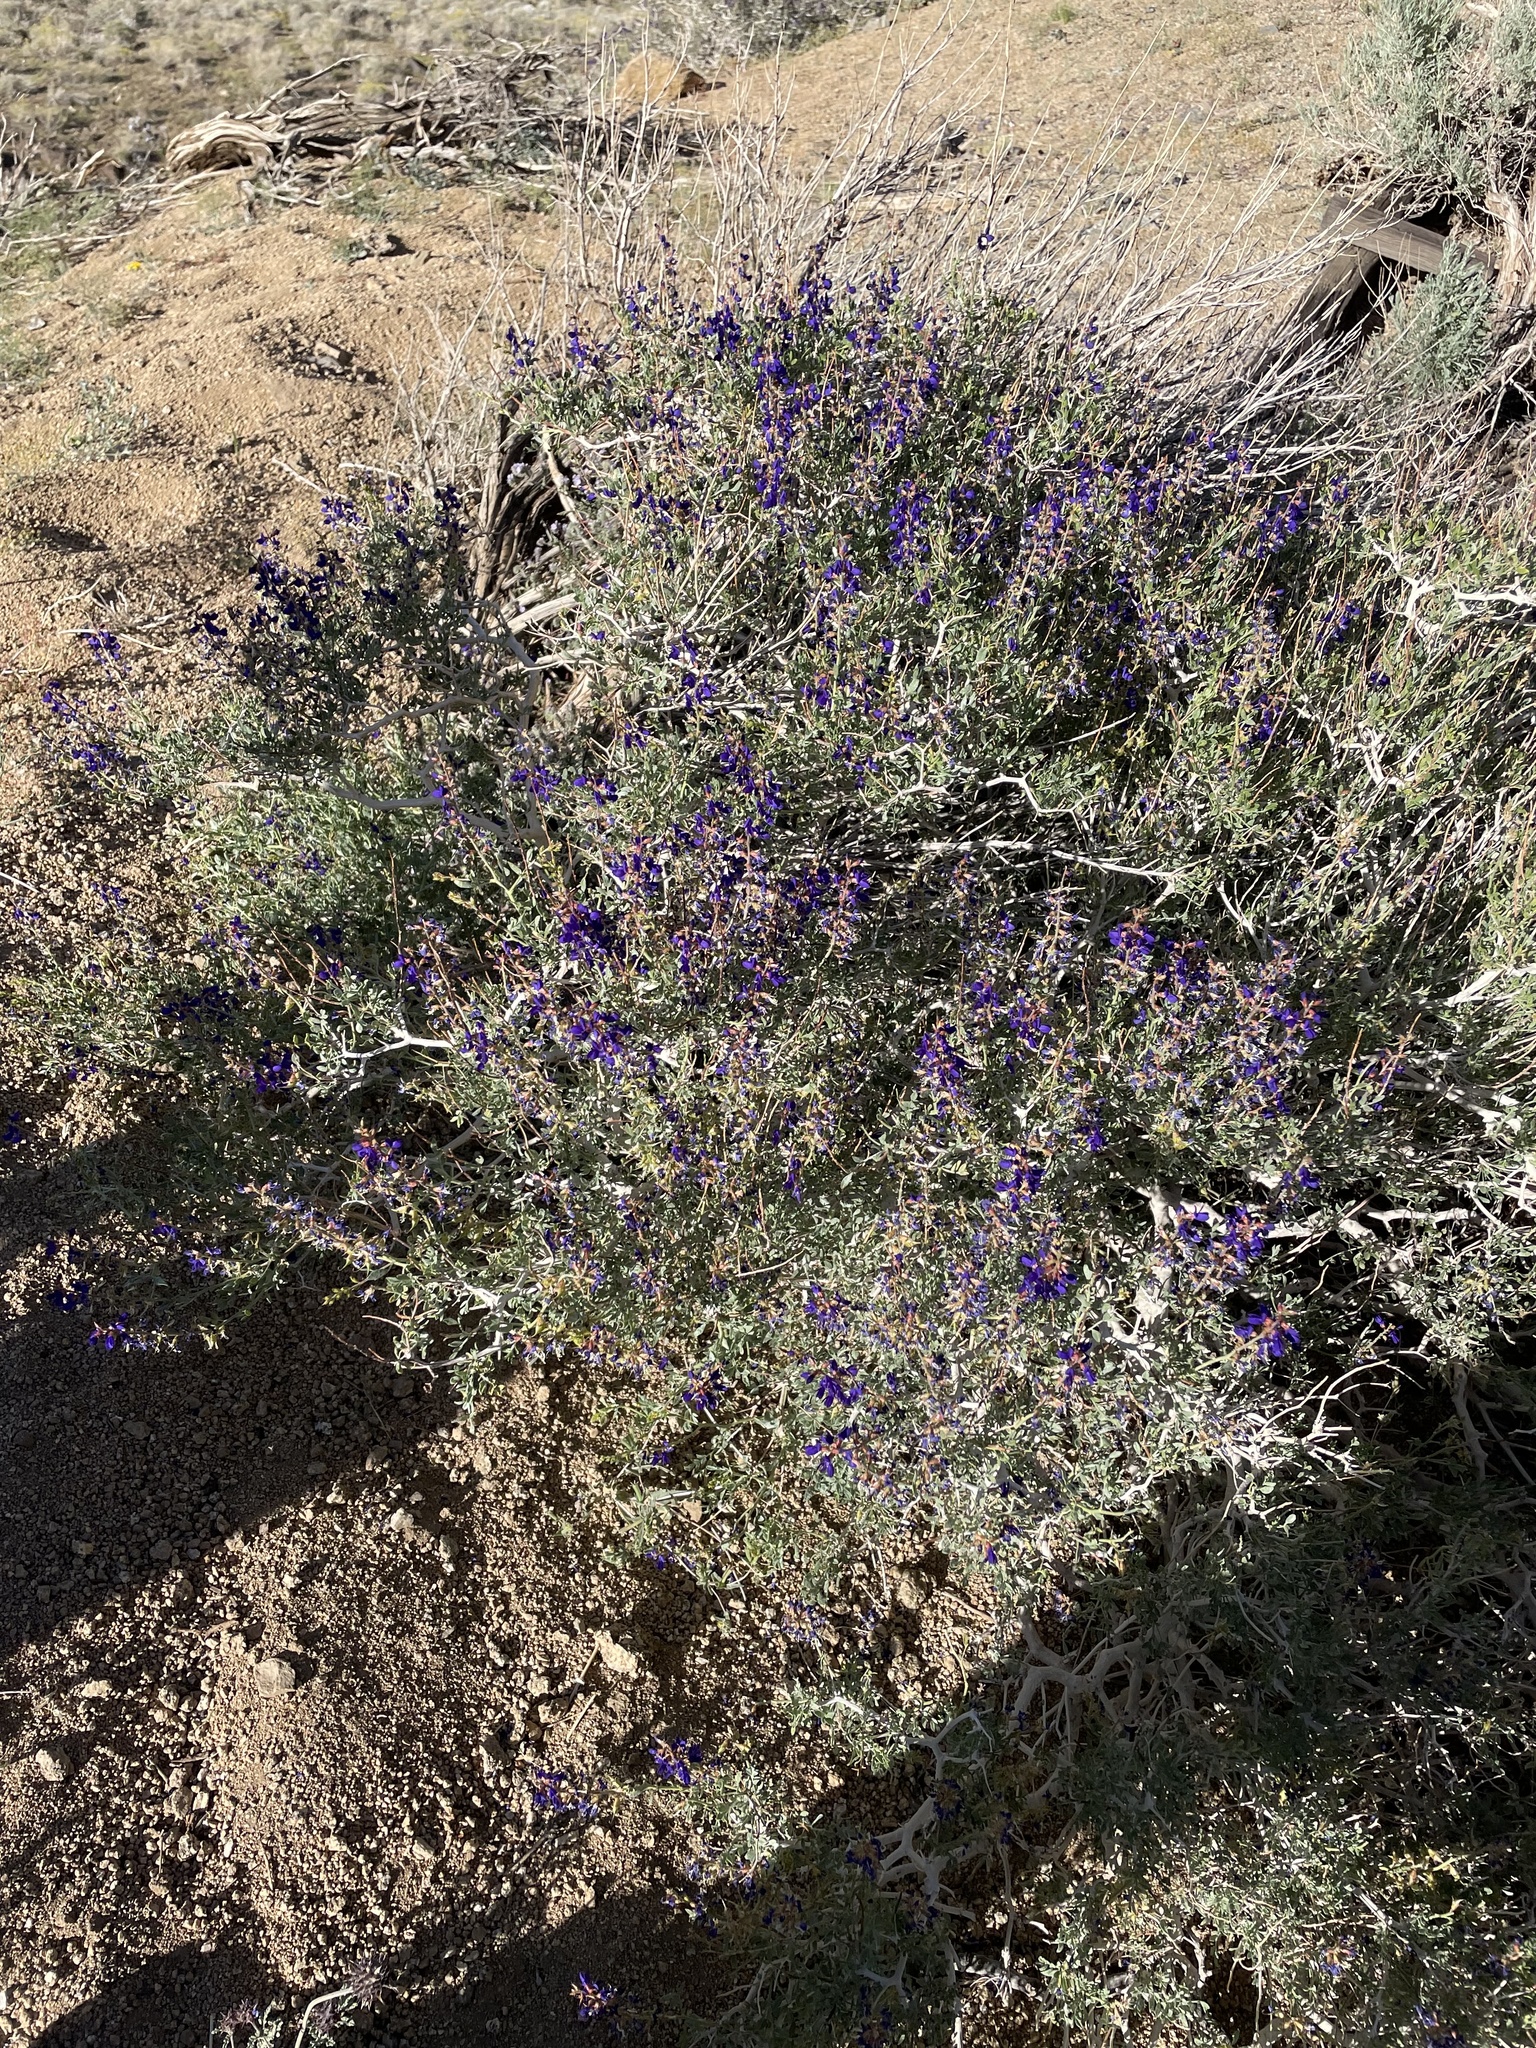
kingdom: Plantae
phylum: Tracheophyta
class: Magnoliopsida
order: Fabales
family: Fabaceae
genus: Psorothamnus
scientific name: Psorothamnus arborescens
